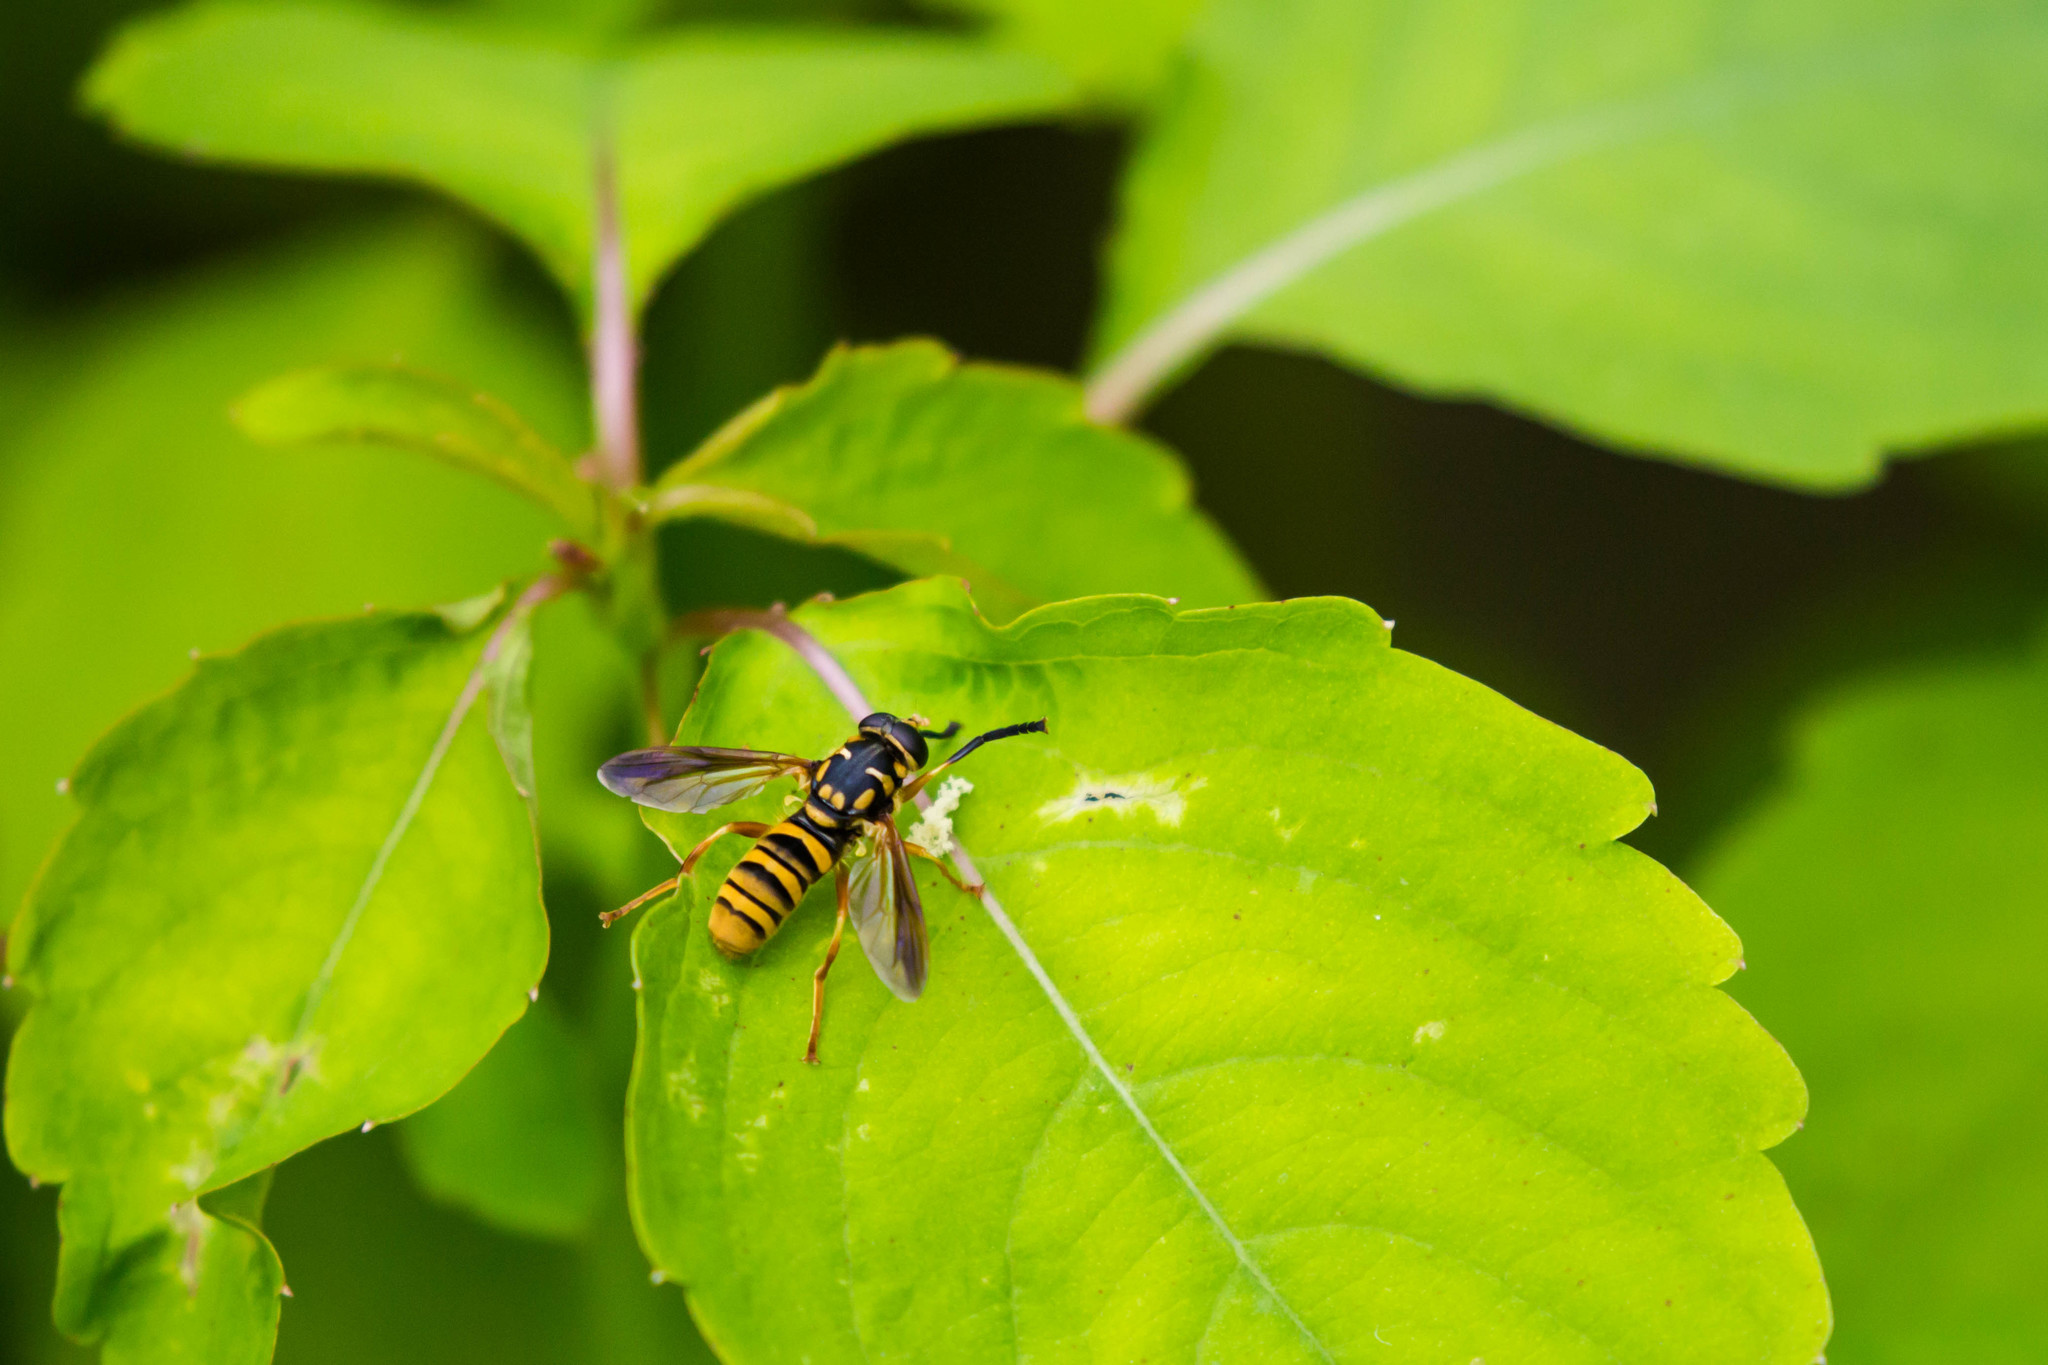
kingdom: Animalia
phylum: Arthropoda
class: Insecta
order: Diptera
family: Syrphidae
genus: Temnostoma
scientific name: Temnostoma daochum
